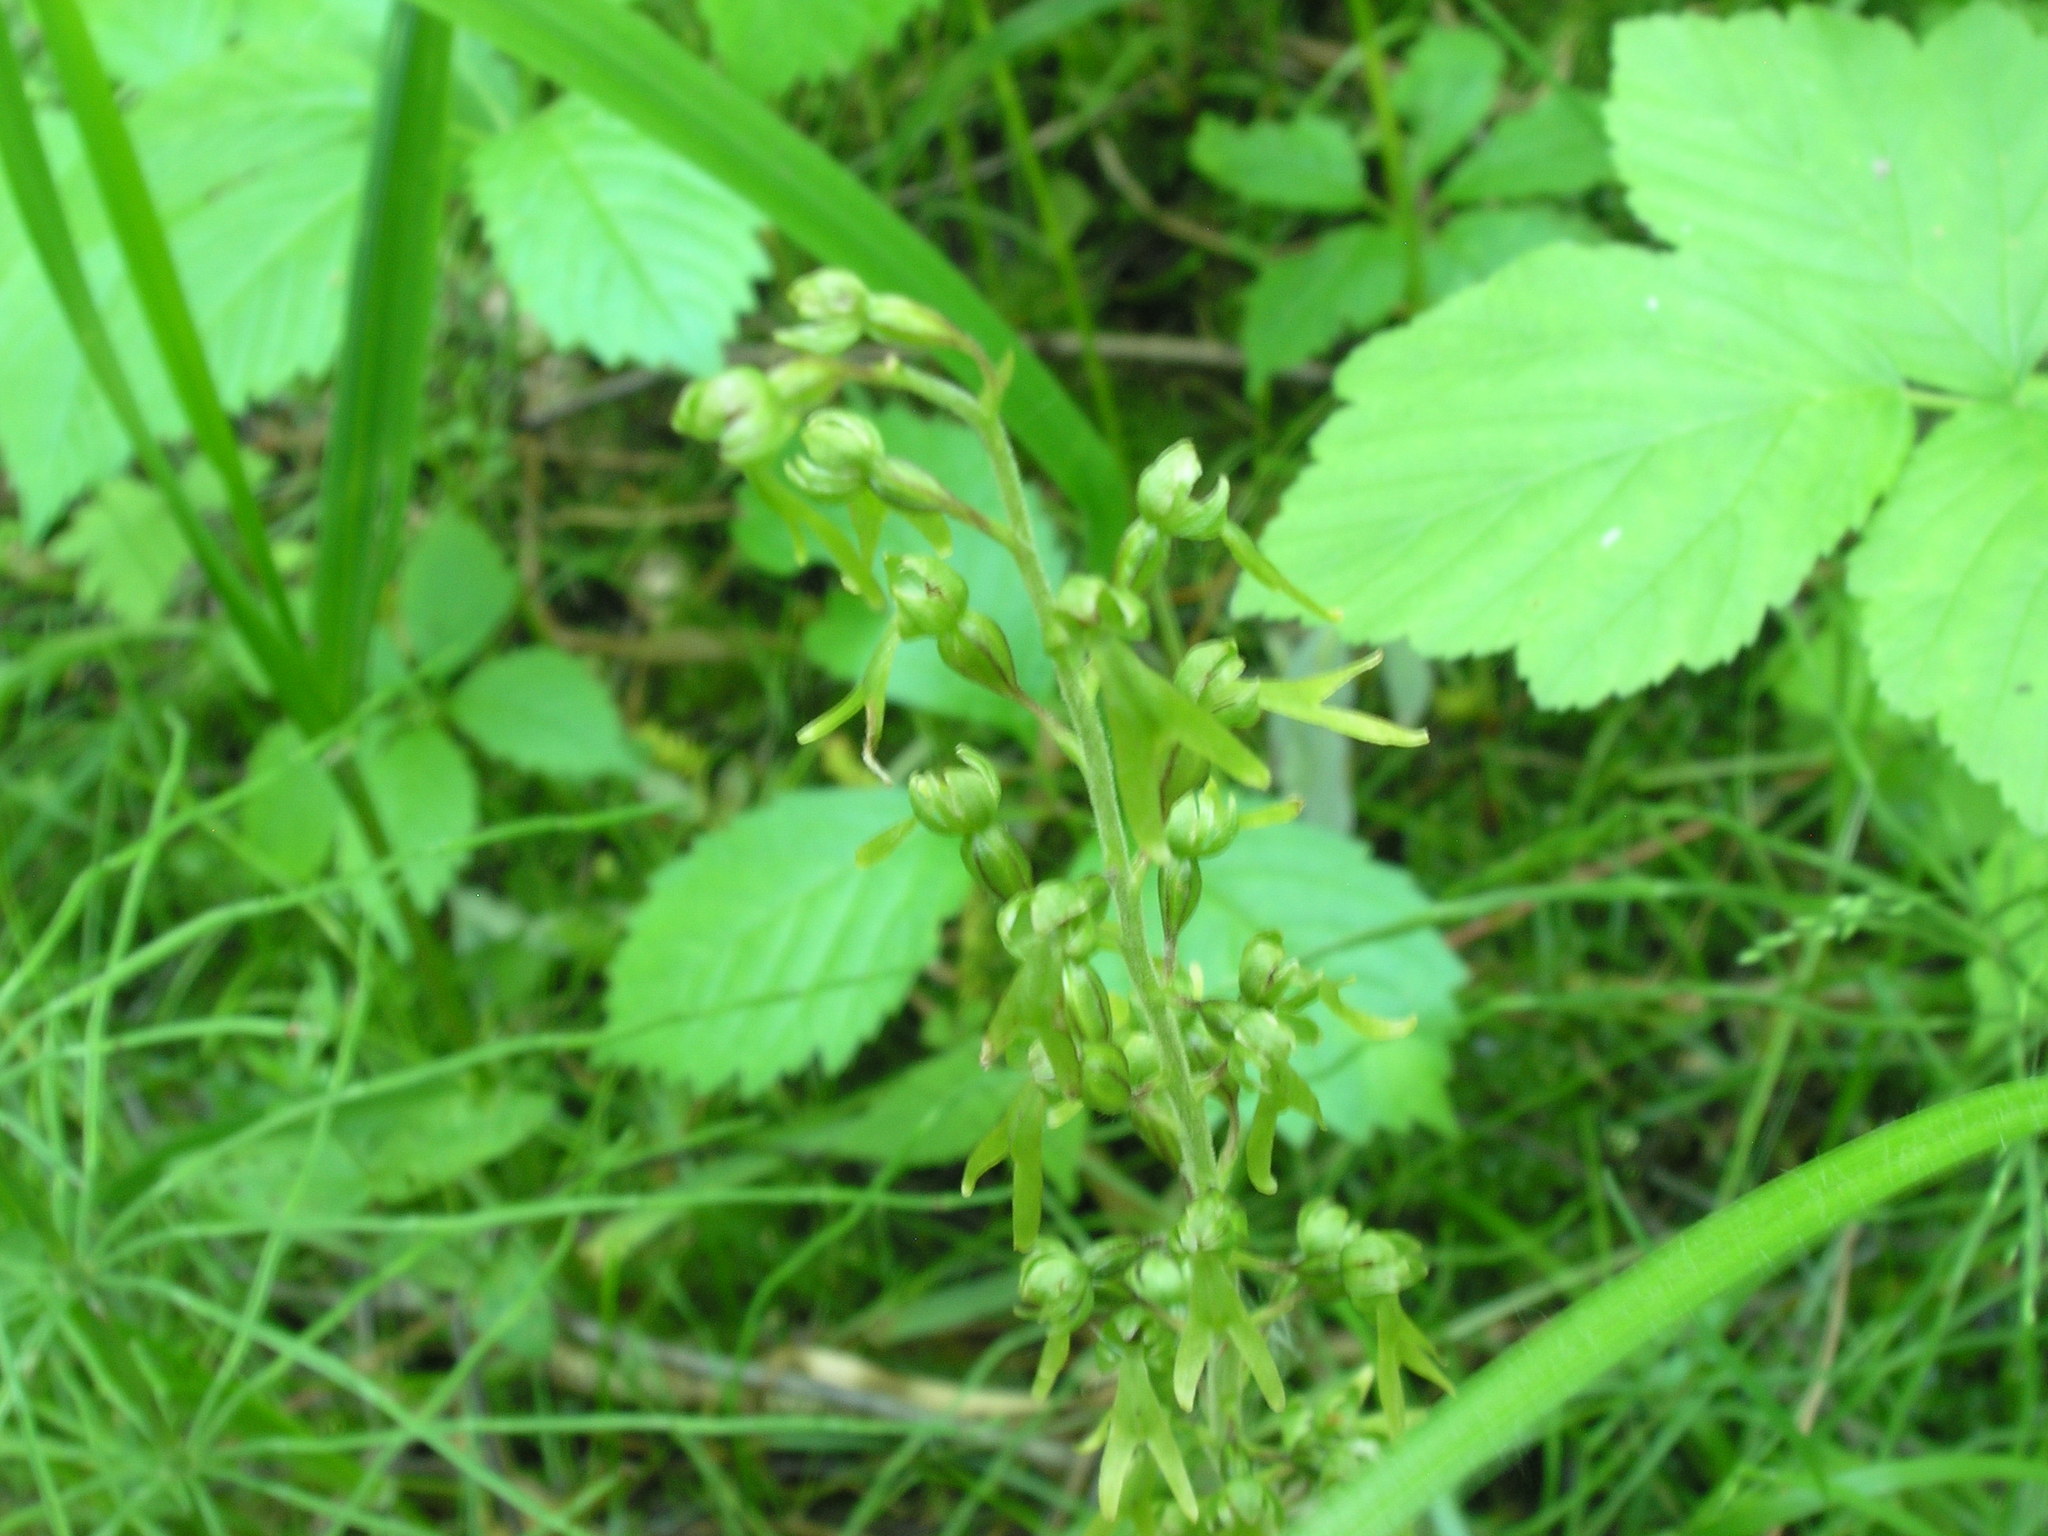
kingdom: Plantae
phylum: Tracheophyta
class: Liliopsida
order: Asparagales
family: Orchidaceae
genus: Neottia
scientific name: Neottia ovata
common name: Common twayblade
